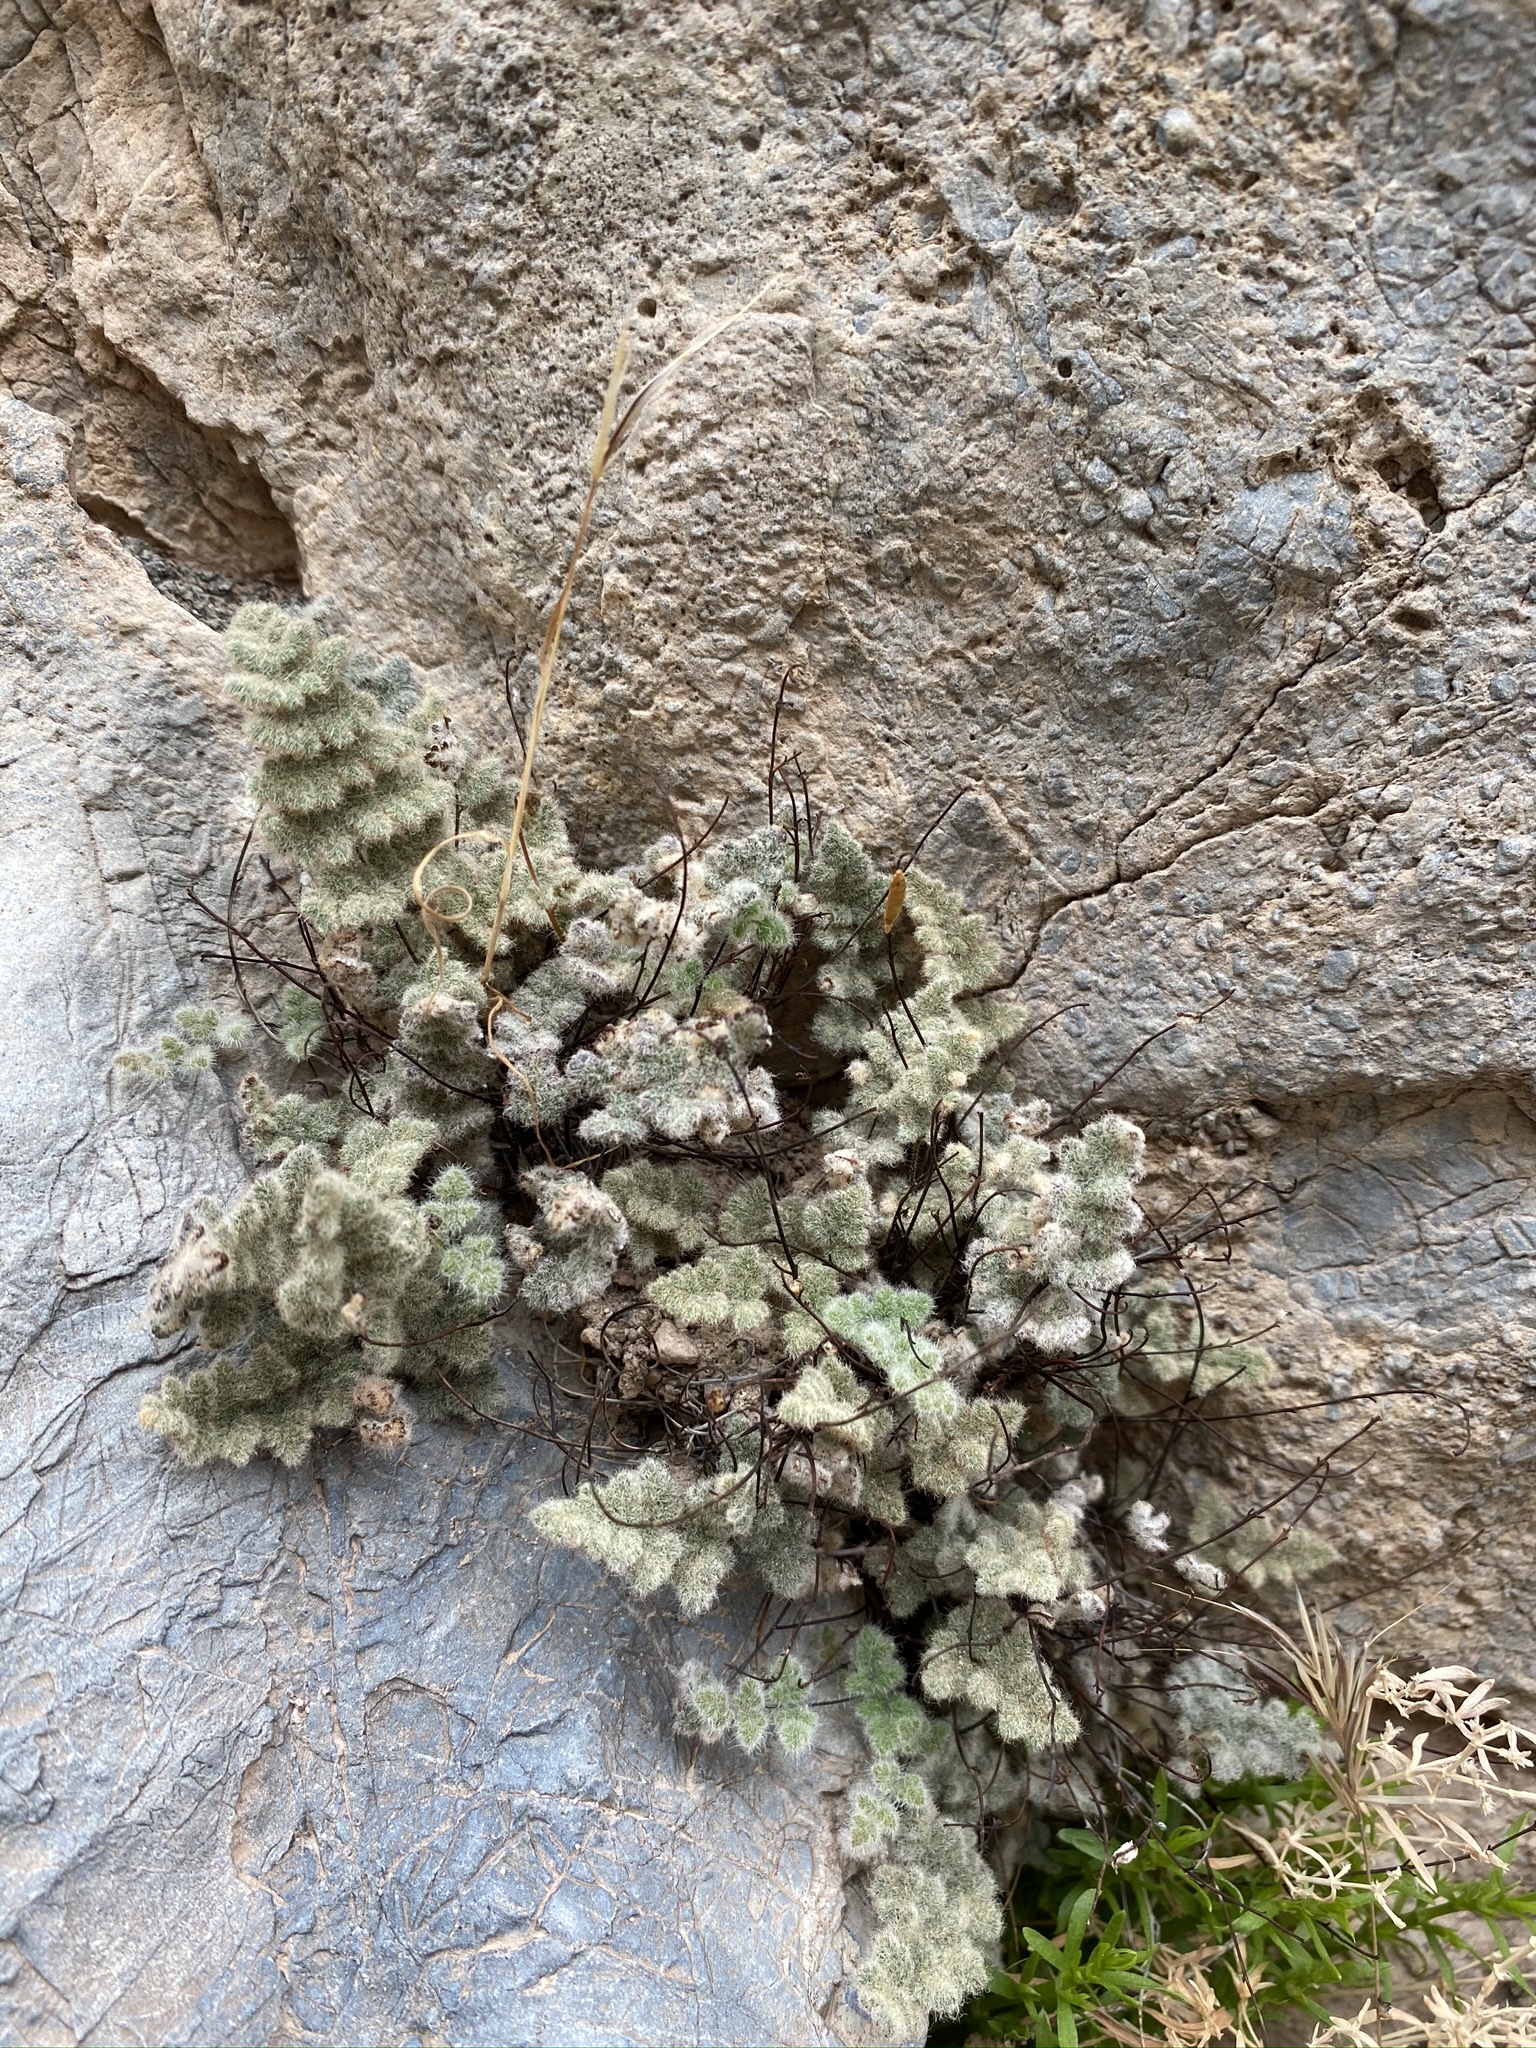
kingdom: Plantae
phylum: Tracheophyta
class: Polypodiopsida
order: Polypodiales
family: Pteridaceae
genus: Myriopteris
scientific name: Myriopteris parryi
